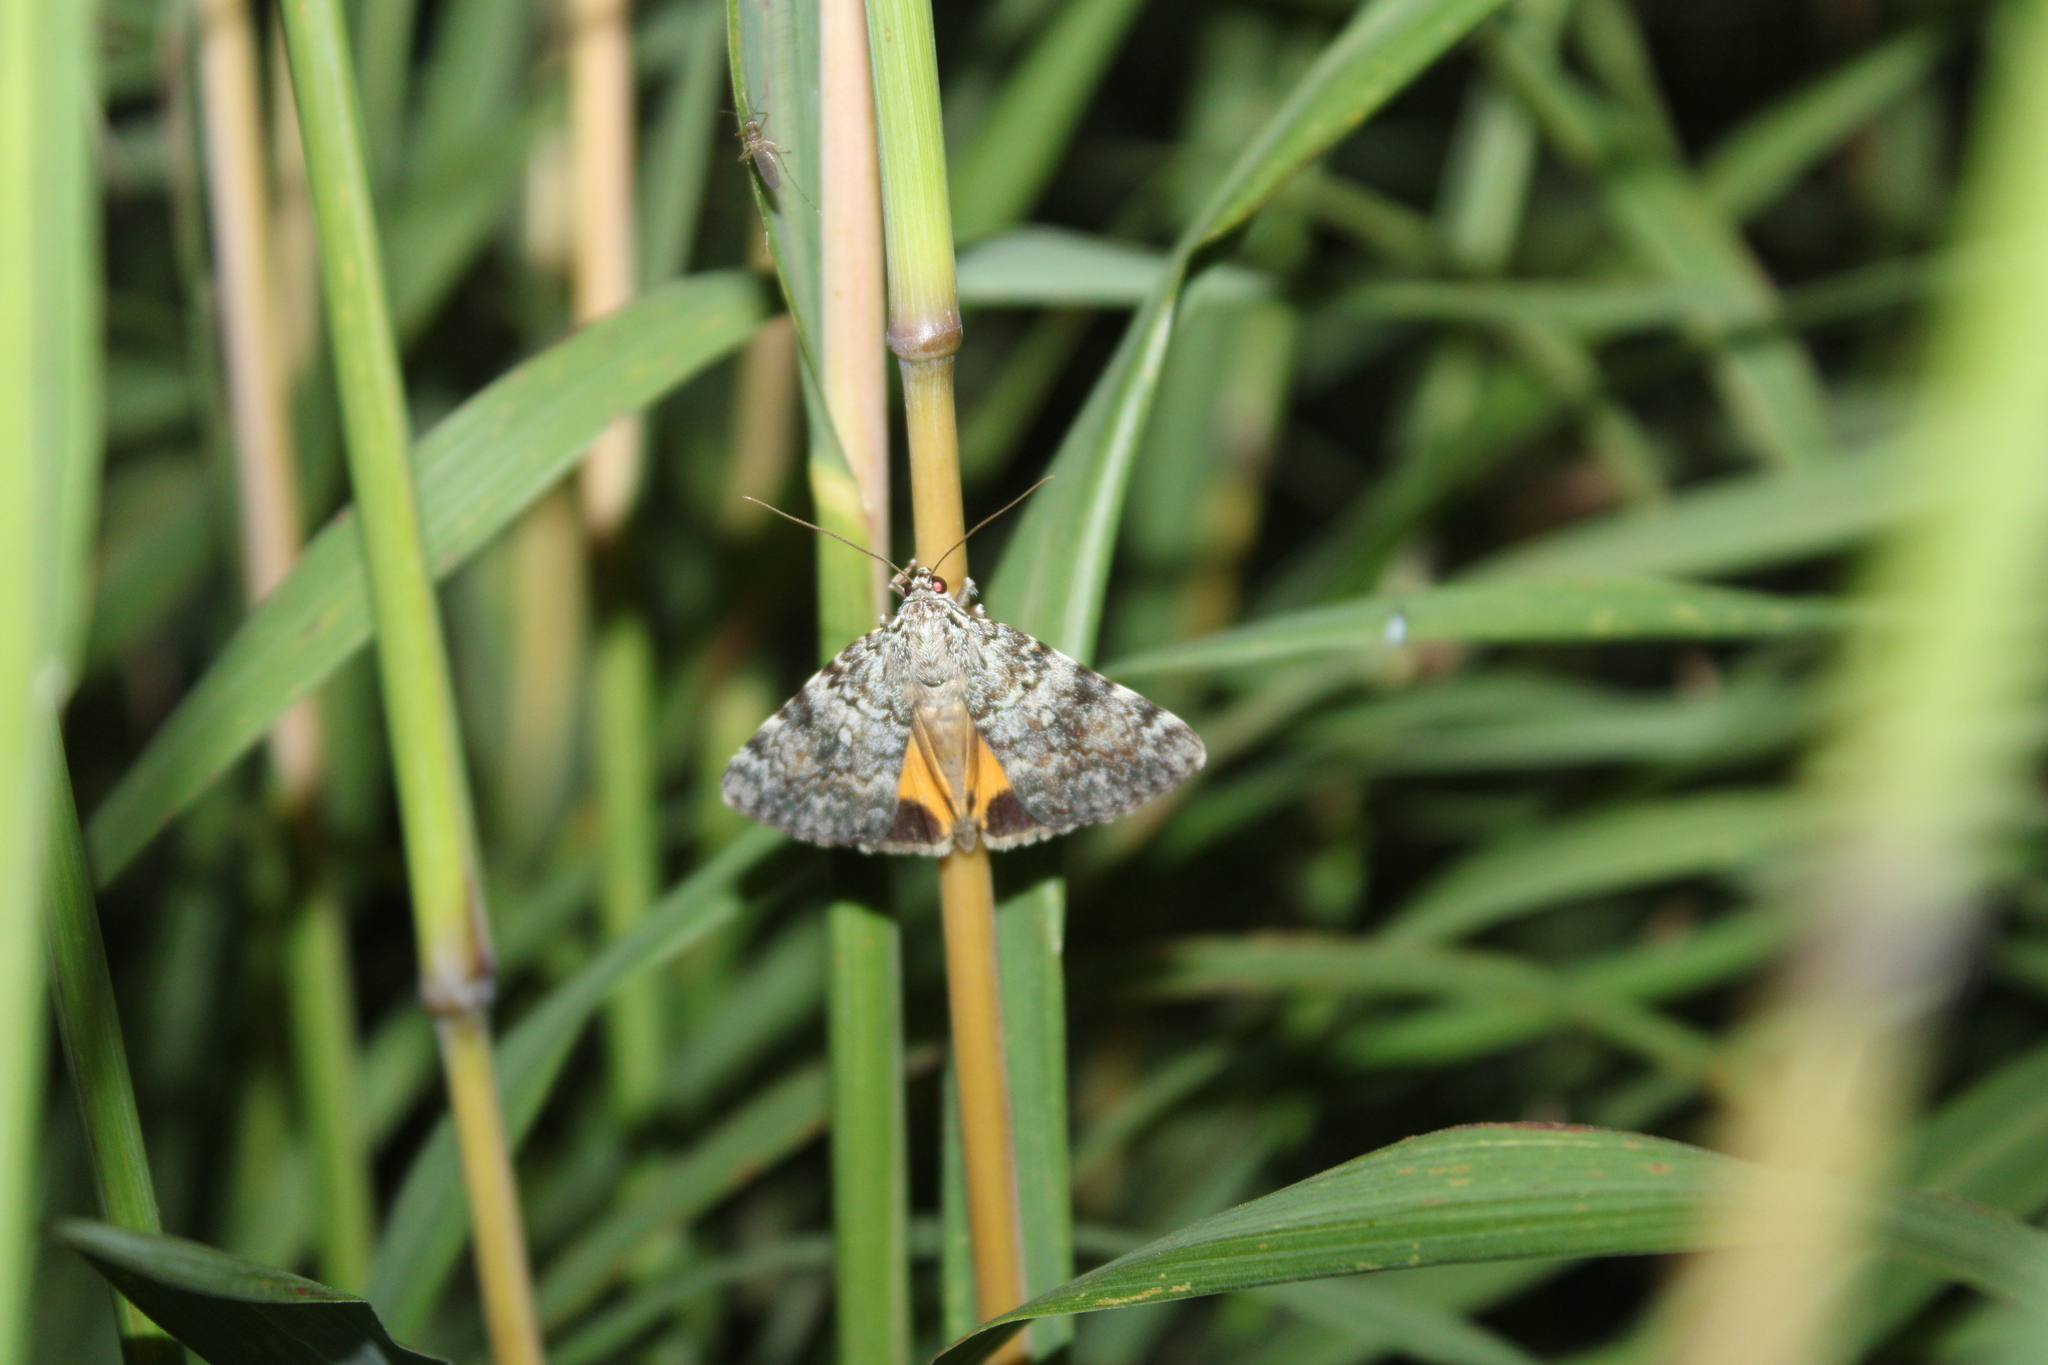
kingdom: Animalia
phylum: Arthropoda
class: Insecta
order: Lepidoptera
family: Erebidae
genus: Catocala
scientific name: Catocala lineella
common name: Little lined underwing
